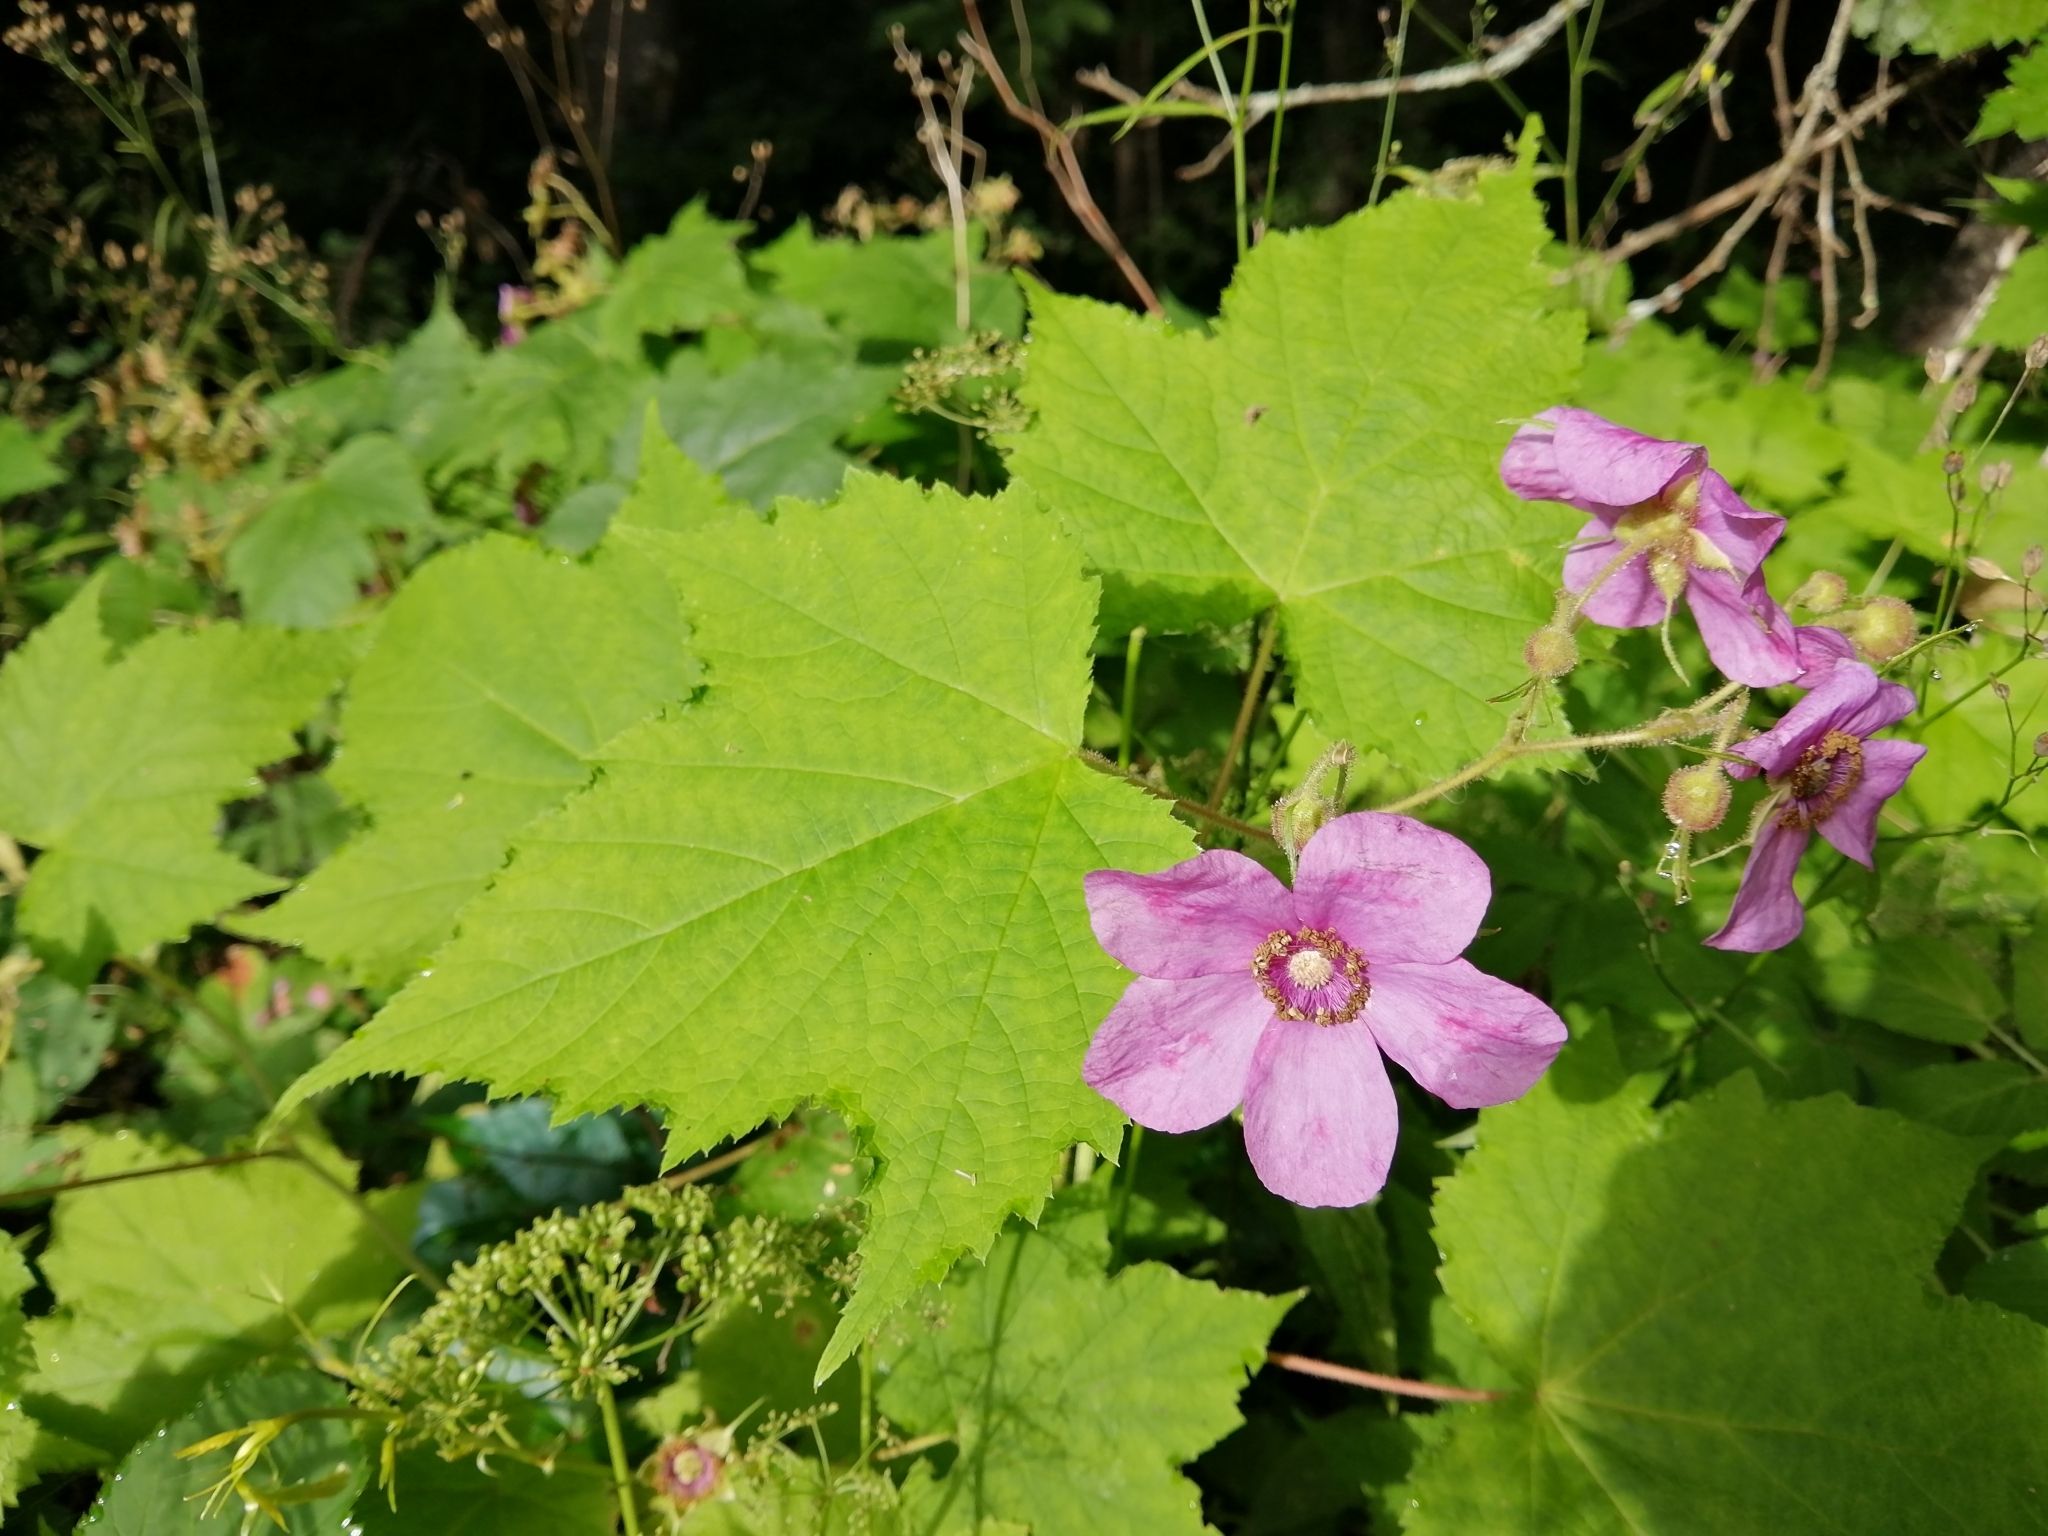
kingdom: Plantae
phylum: Tracheophyta
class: Magnoliopsida
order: Rosales
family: Rosaceae
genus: Rubus
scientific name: Rubus odoratus
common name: Purple-flowered raspberry
